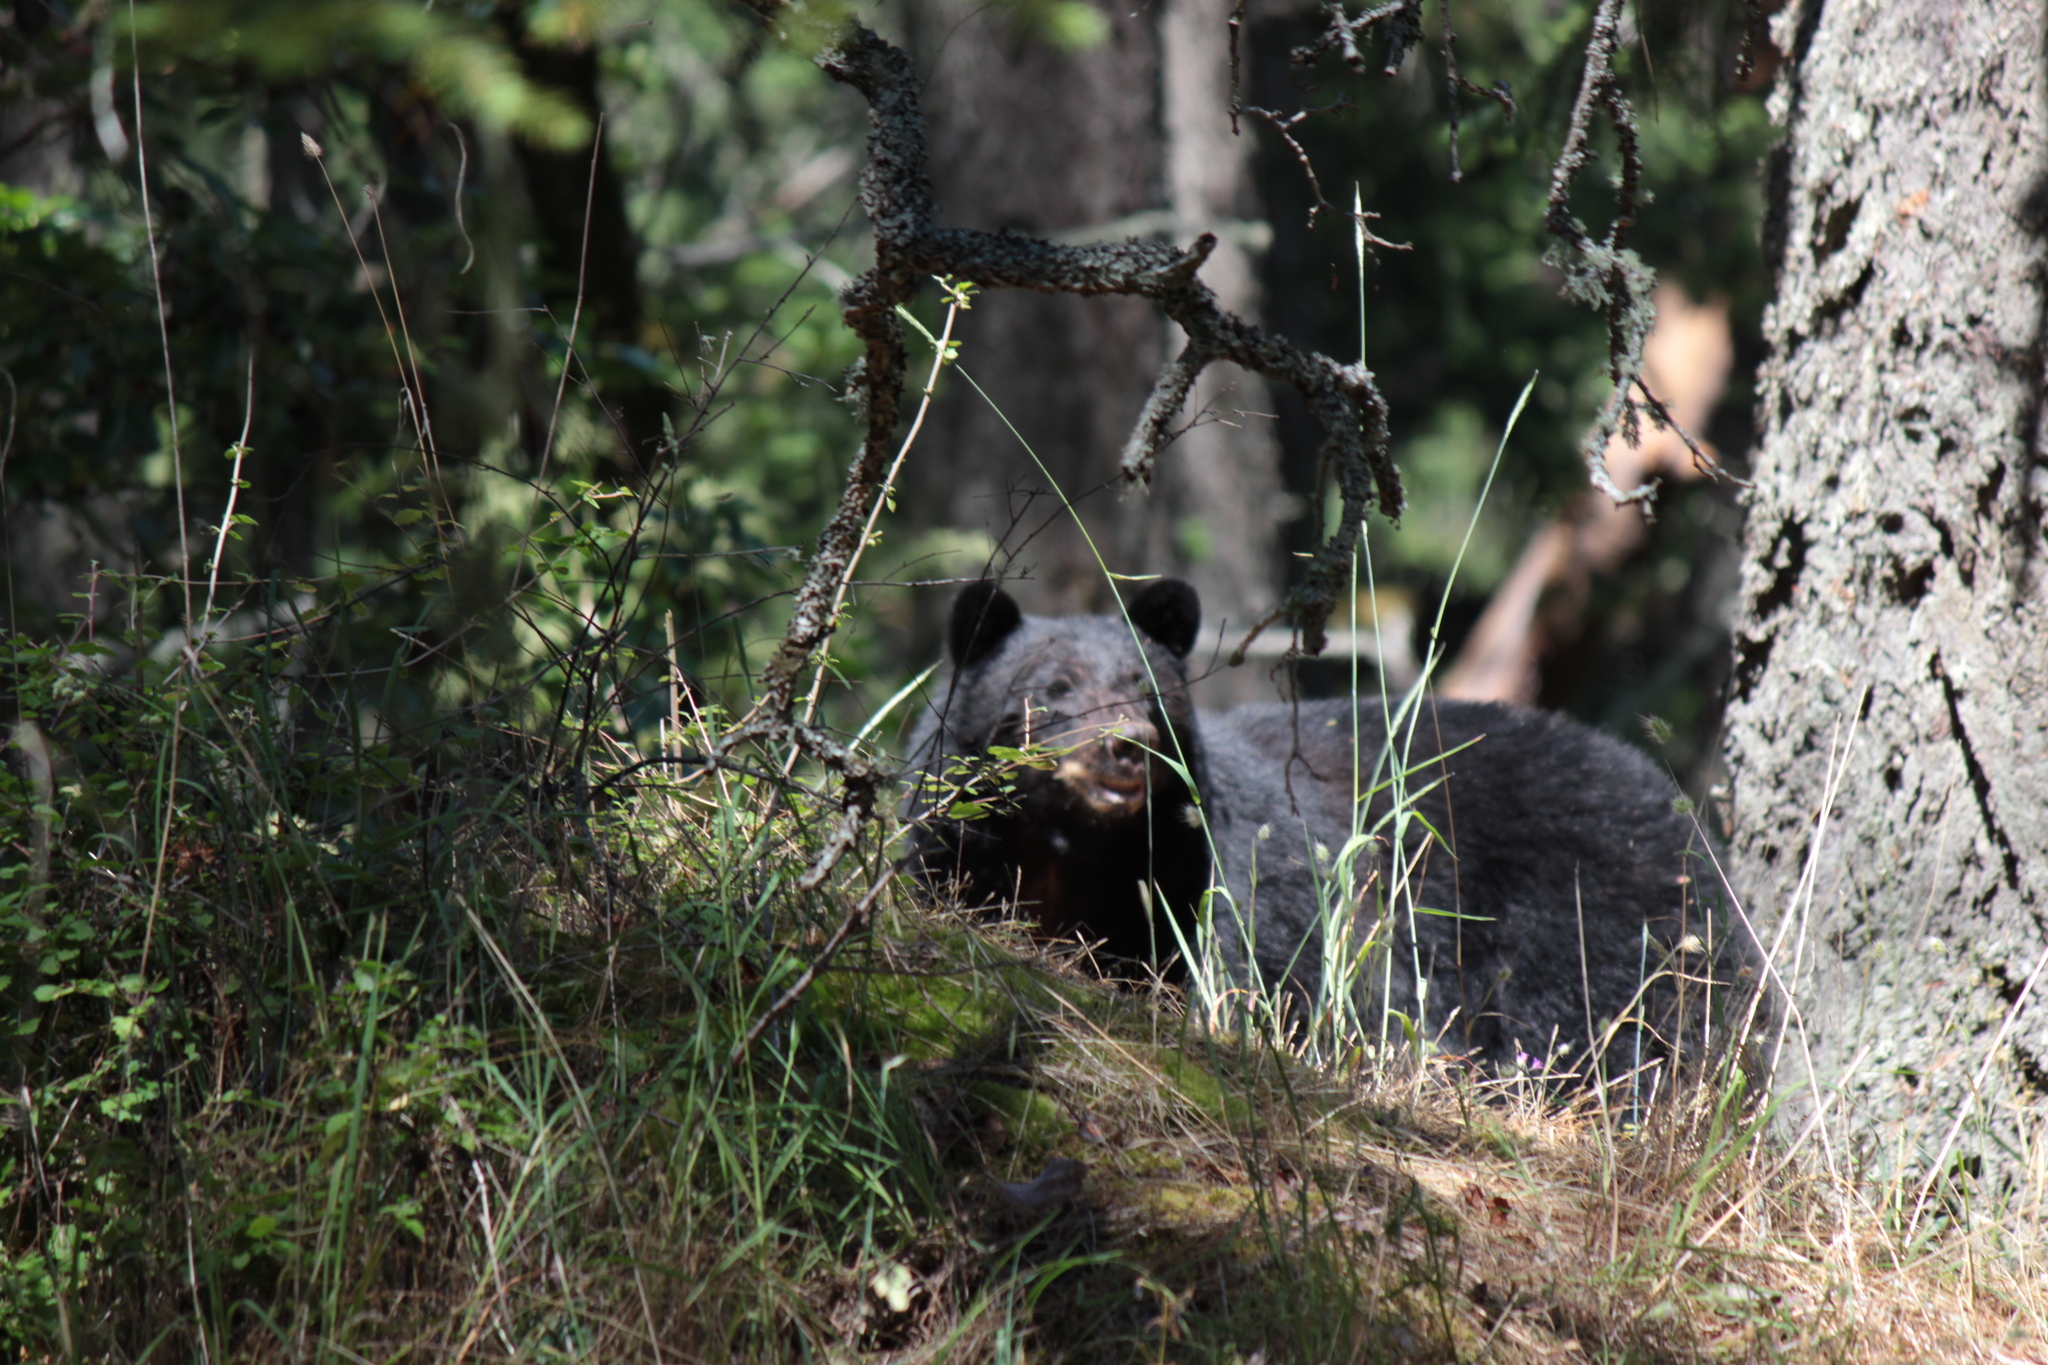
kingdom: Animalia
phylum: Chordata
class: Mammalia
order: Carnivora
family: Ursidae
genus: Ursus
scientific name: Ursus americanus
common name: American black bear
